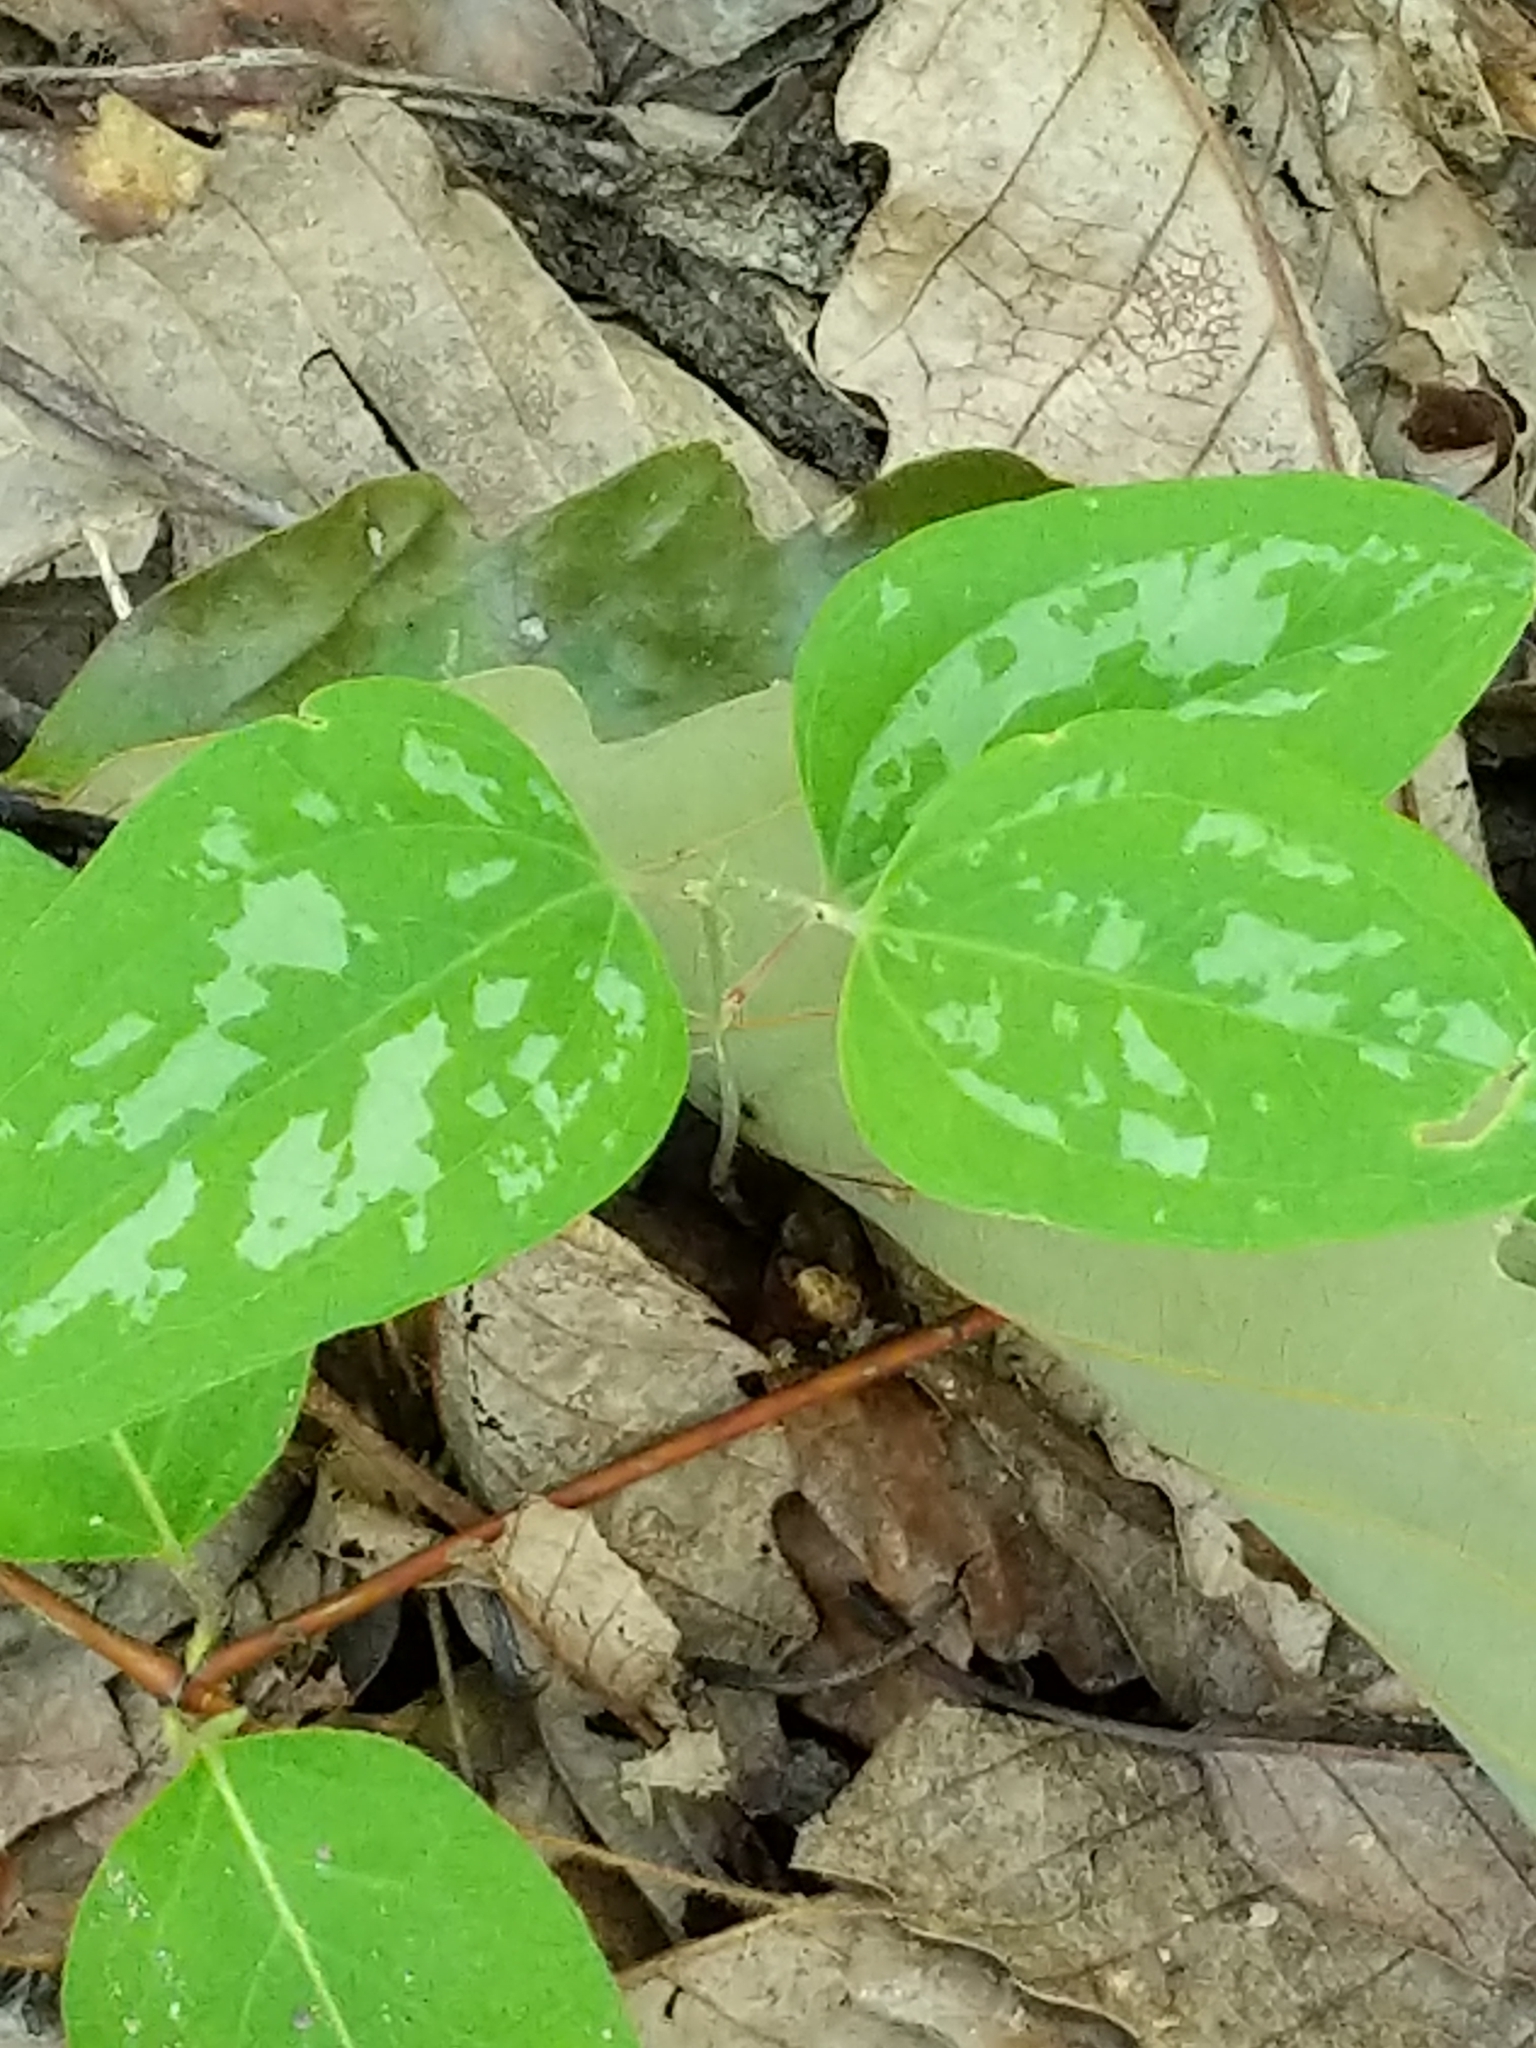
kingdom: Plantae
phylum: Tracheophyta
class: Liliopsida
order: Liliales
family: Smilacaceae
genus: Smilax
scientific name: Smilax glauca
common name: Cat greenbrier
